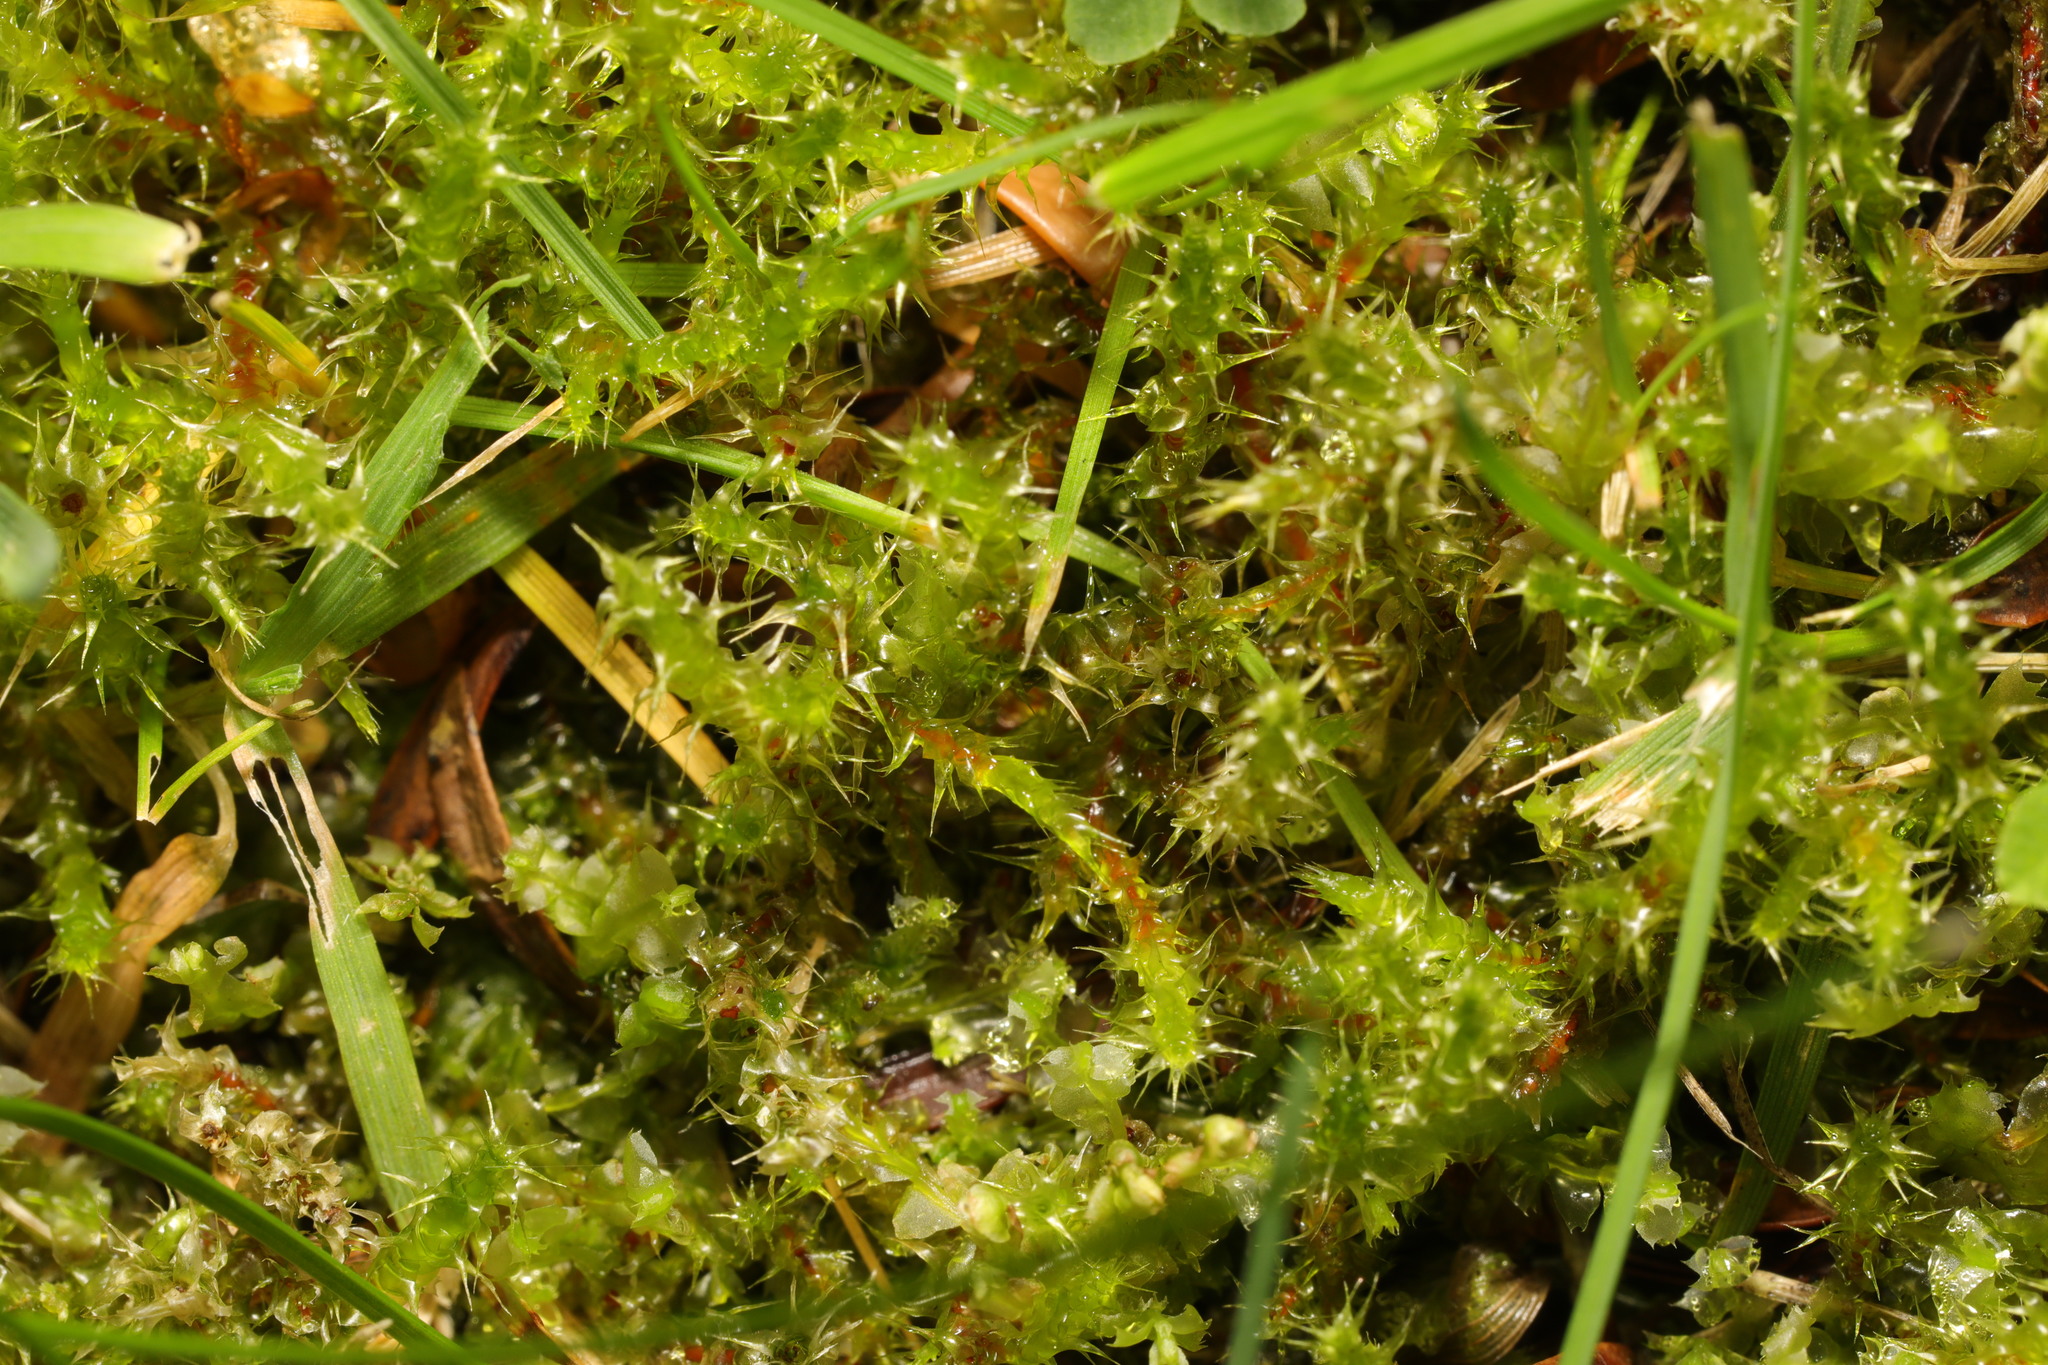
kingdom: Plantae
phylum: Bryophyta
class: Bryopsida
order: Hypnales
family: Hylocomiaceae
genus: Rhytidiadelphus
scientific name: Rhytidiadelphus squarrosus
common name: Springy turf-moss
